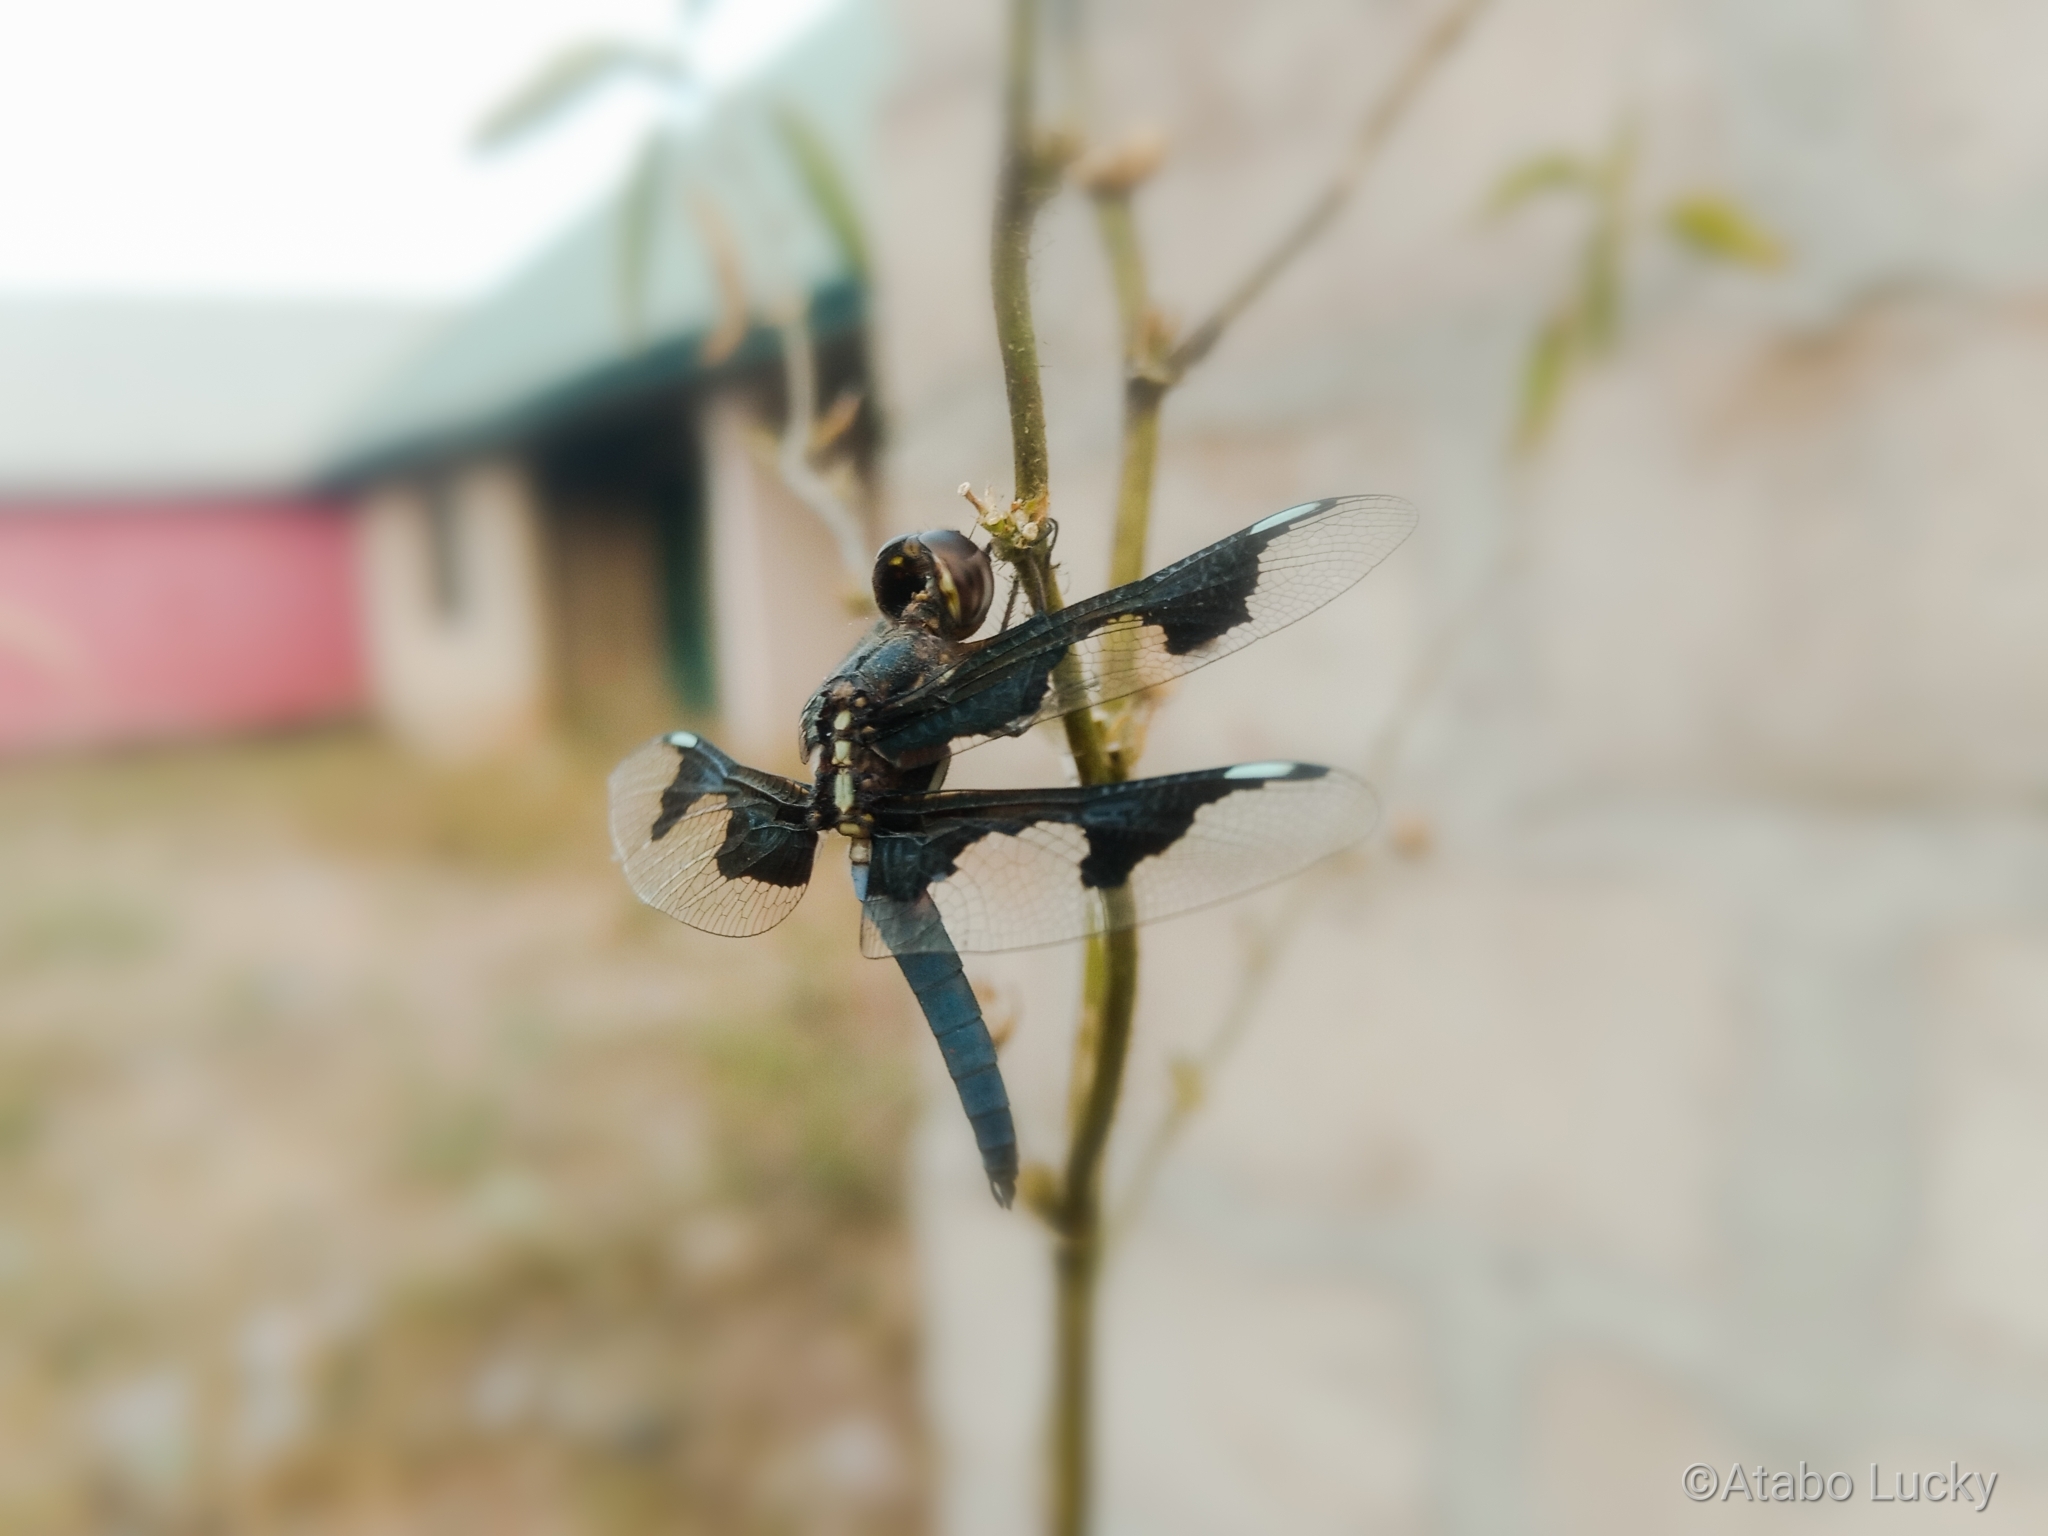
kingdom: Animalia
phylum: Arthropoda
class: Insecta
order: Odonata
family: Libellulidae
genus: Palpopleura
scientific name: Palpopleura portia
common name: Portia widow
